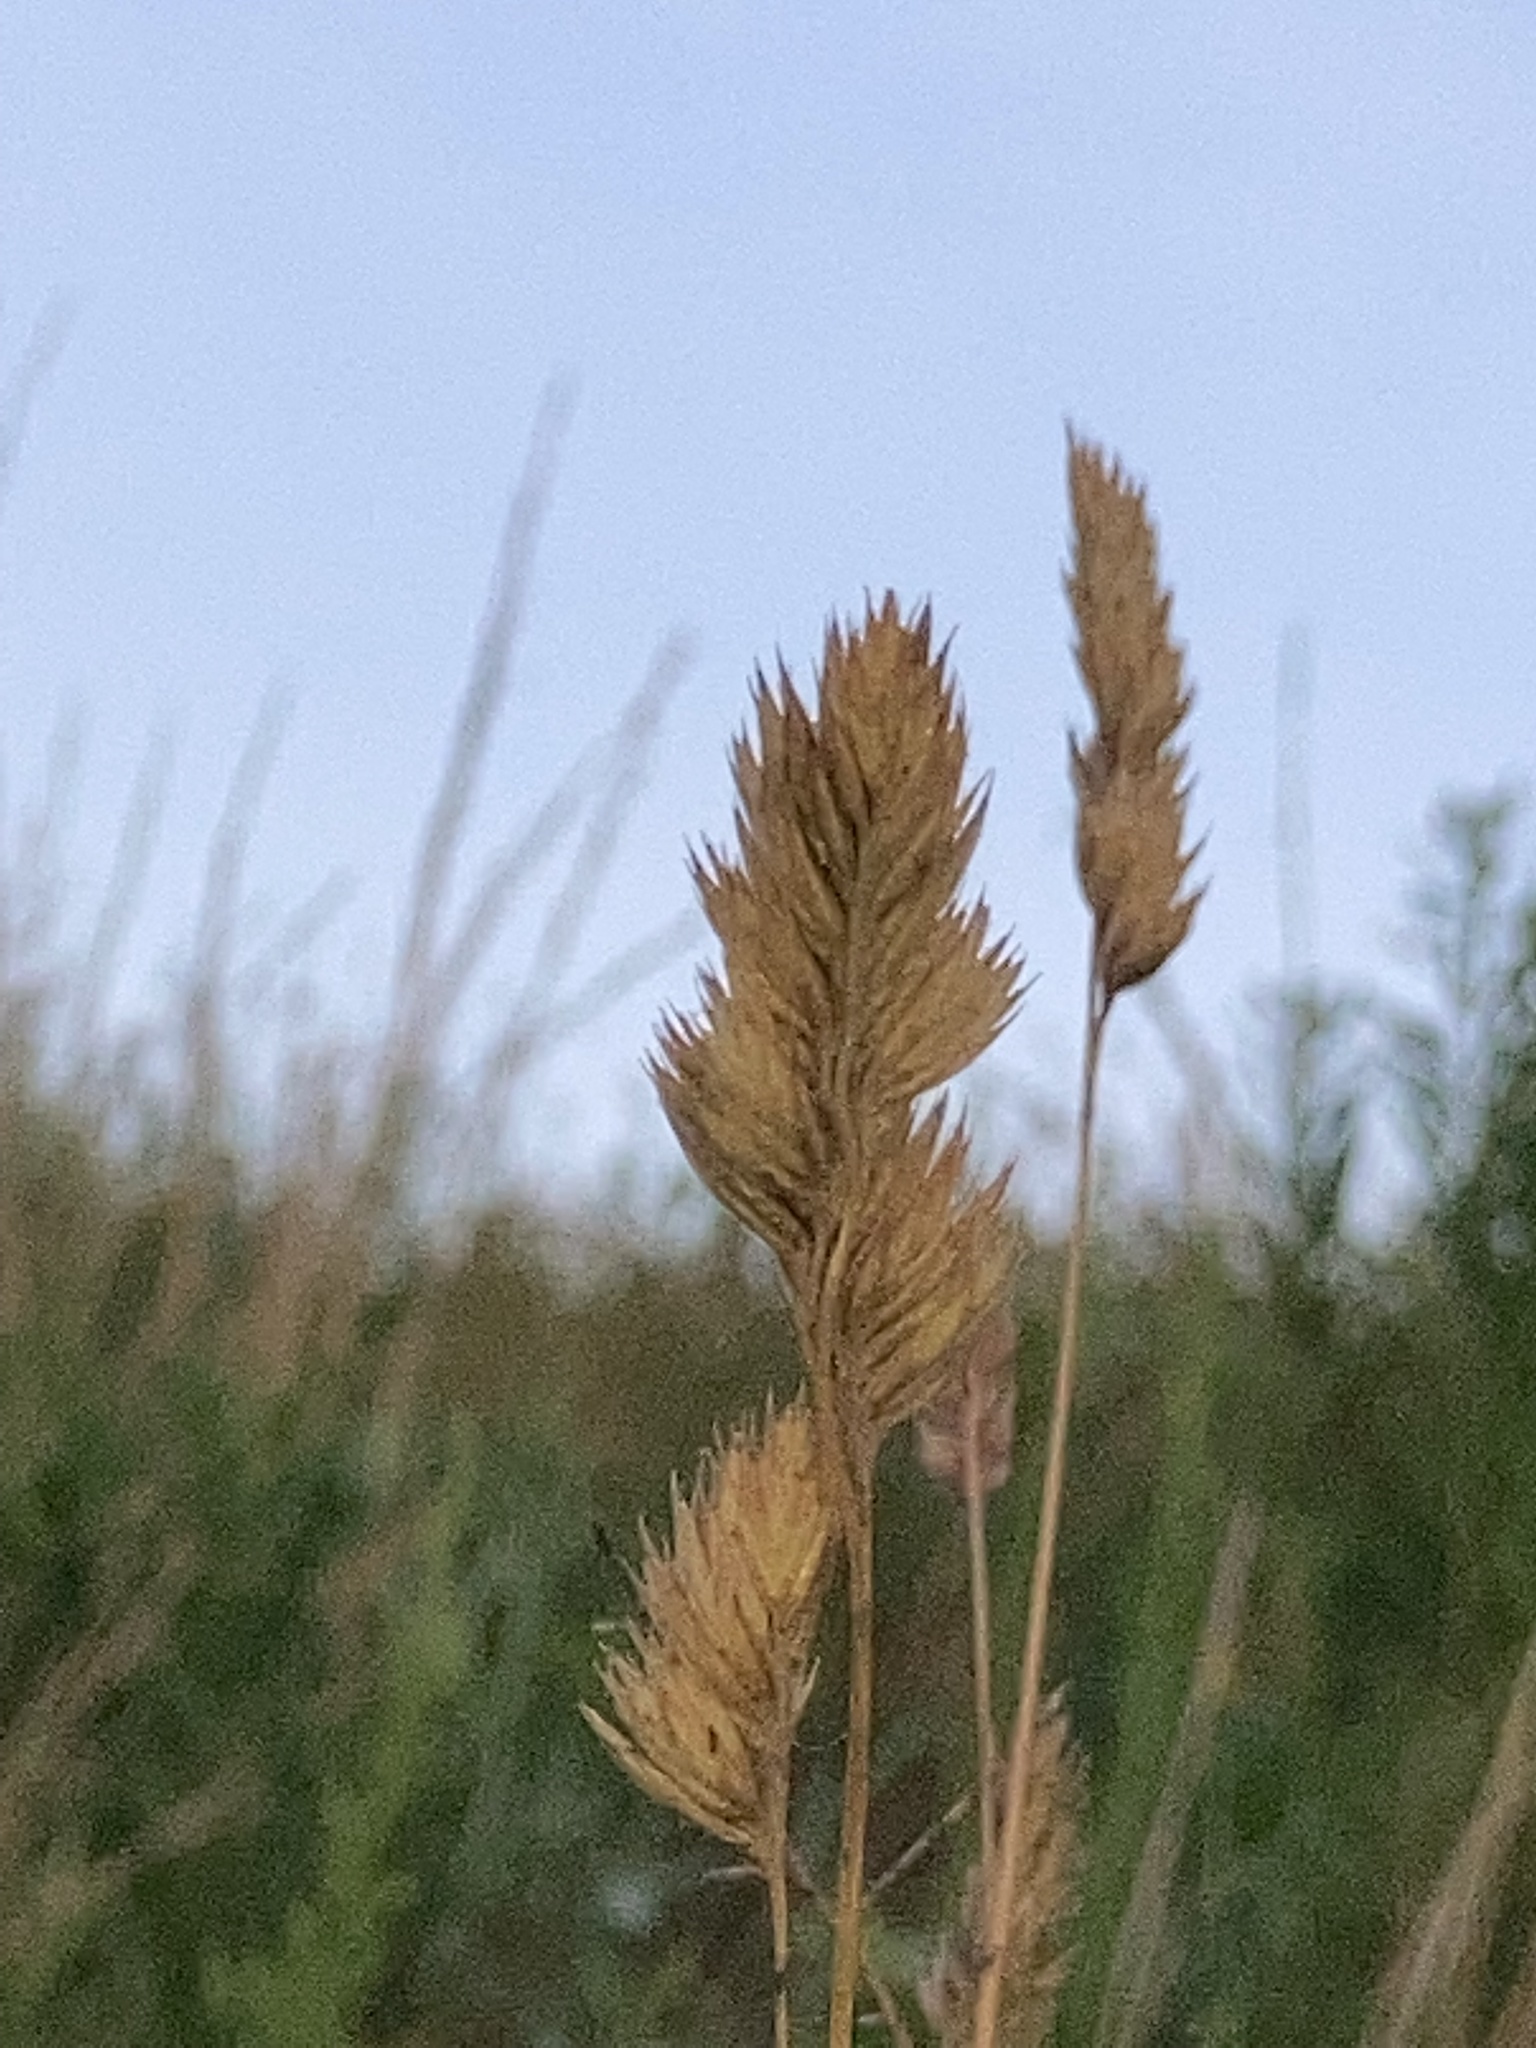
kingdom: Plantae
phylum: Tracheophyta
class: Liliopsida
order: Poales
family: Poaceae
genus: Dactylis
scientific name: Dactylis glomerata
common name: Orchardgrass
